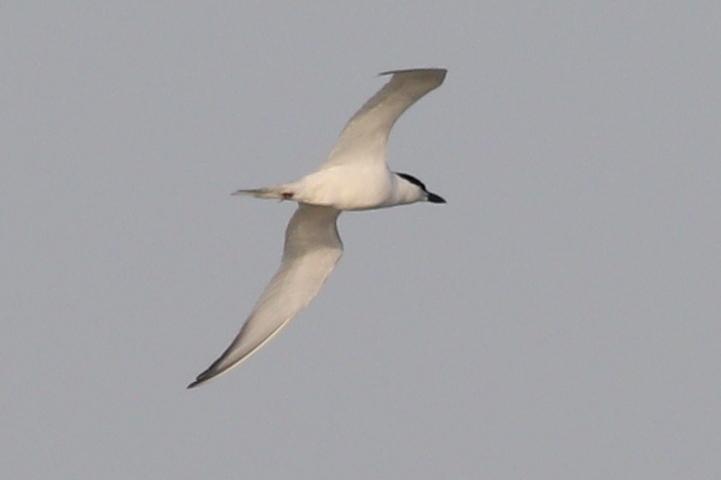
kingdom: Animalia
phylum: Chordata
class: Aves
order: Charadriiformes
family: Laridae
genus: Gelochelidon
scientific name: Gelochelidon nilotica
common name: Gull-billed tern
